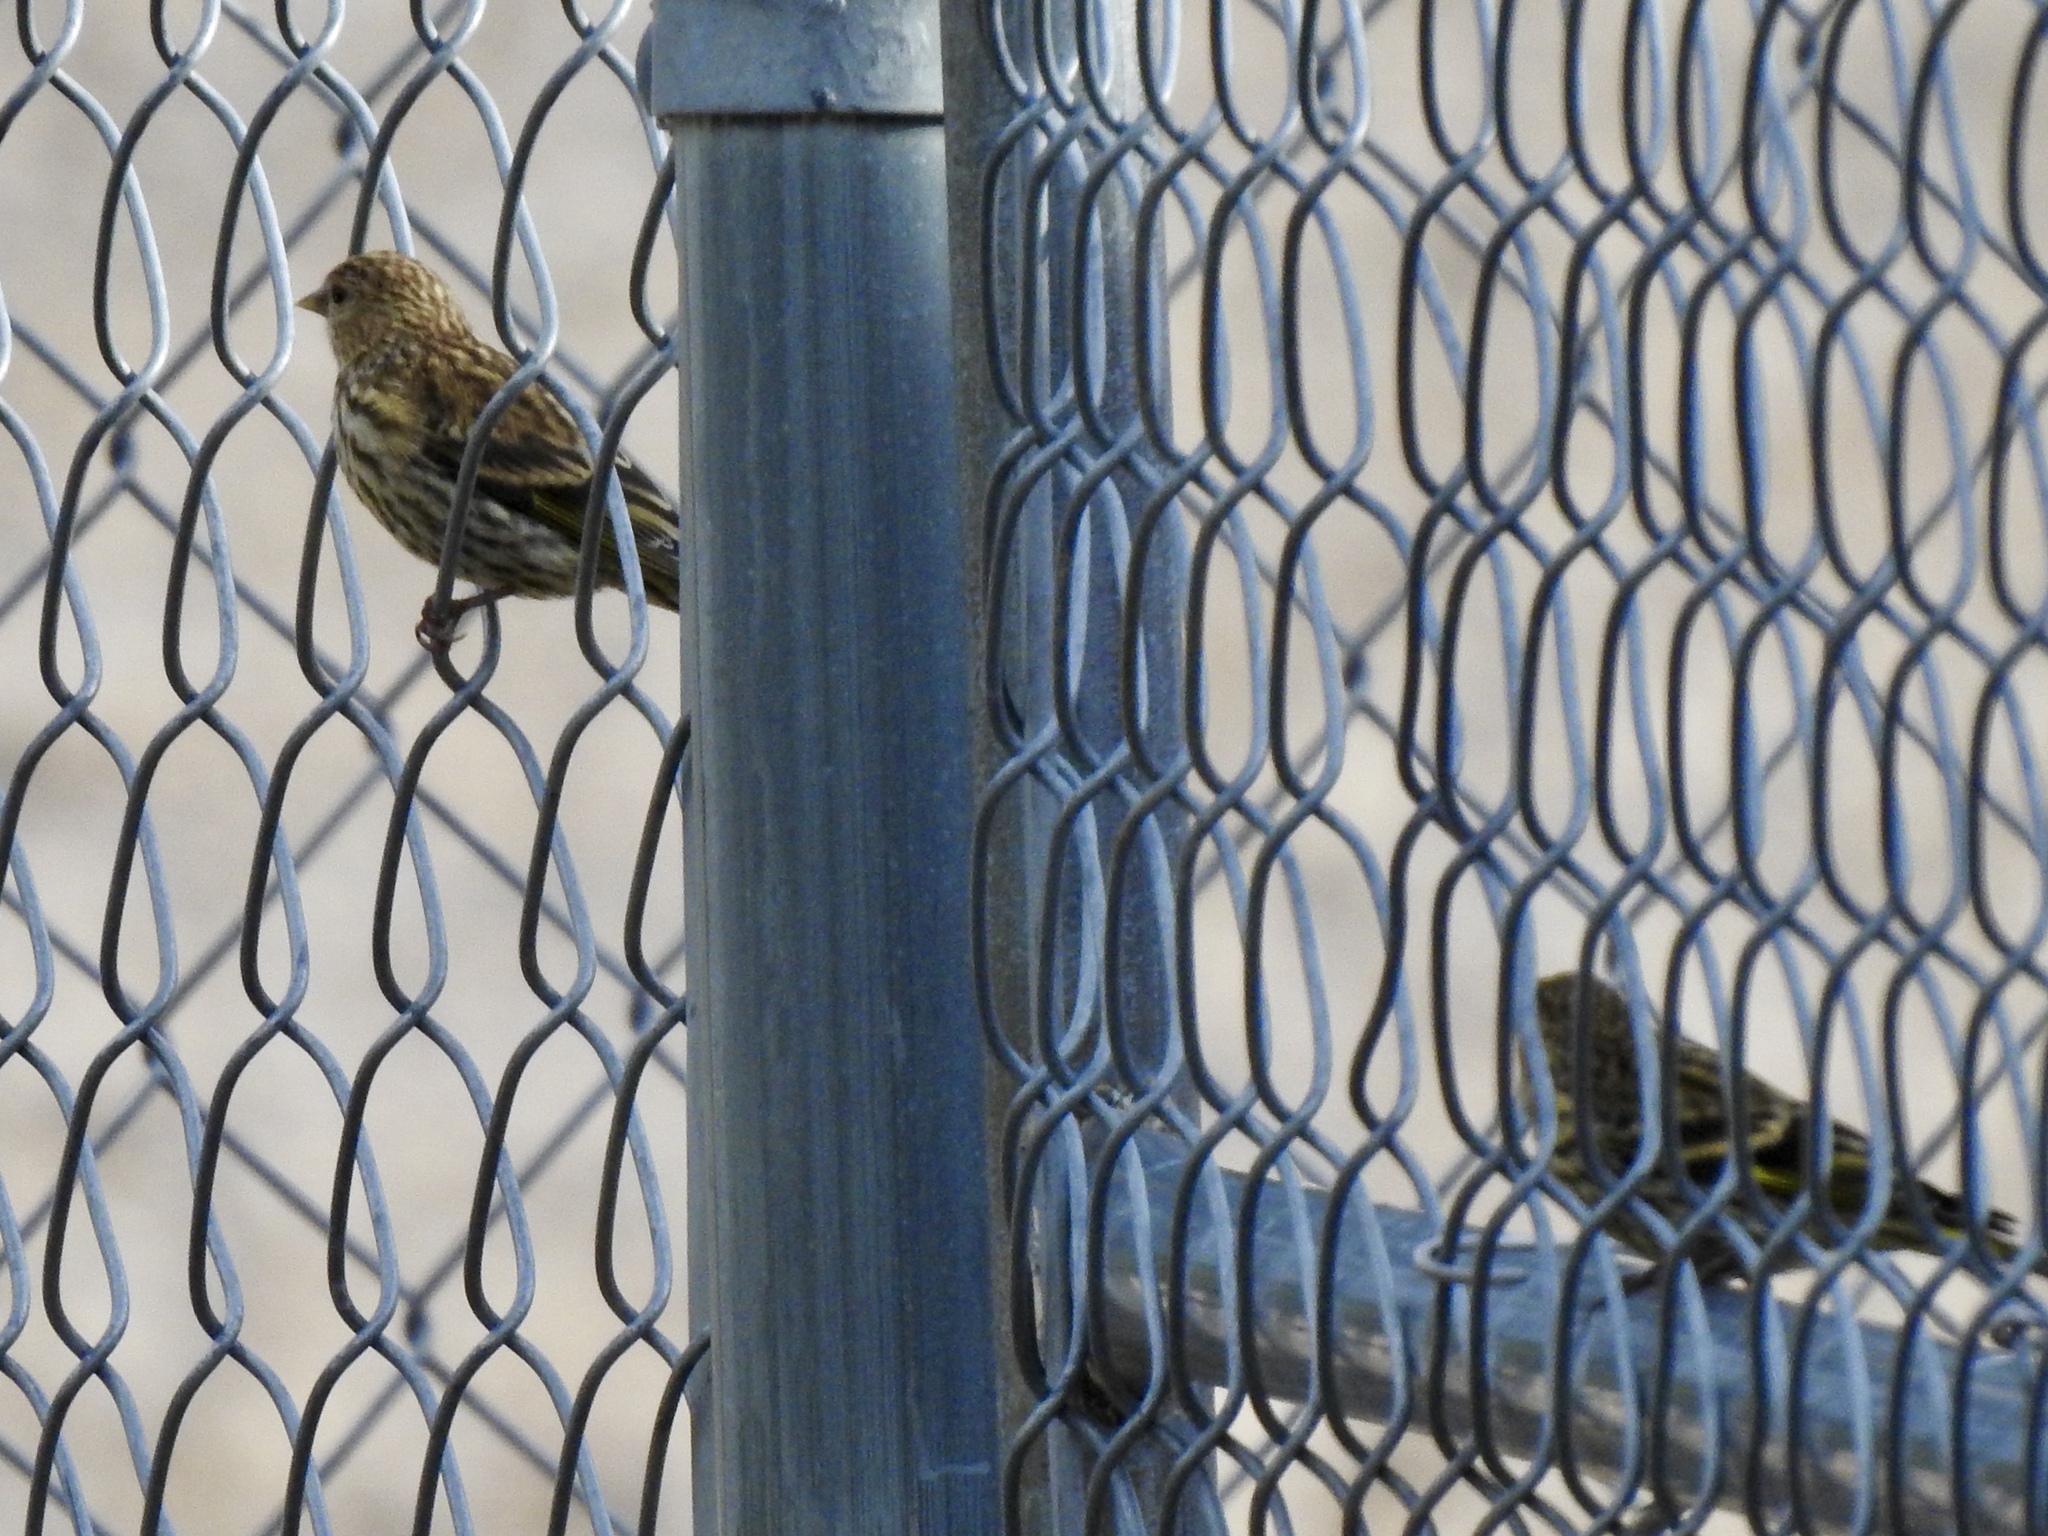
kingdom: Animalia
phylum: Chordata
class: Aves
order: Passeriformes
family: Fringillidae
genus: Spinus
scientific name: Spinus pinus
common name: Pine siskin
